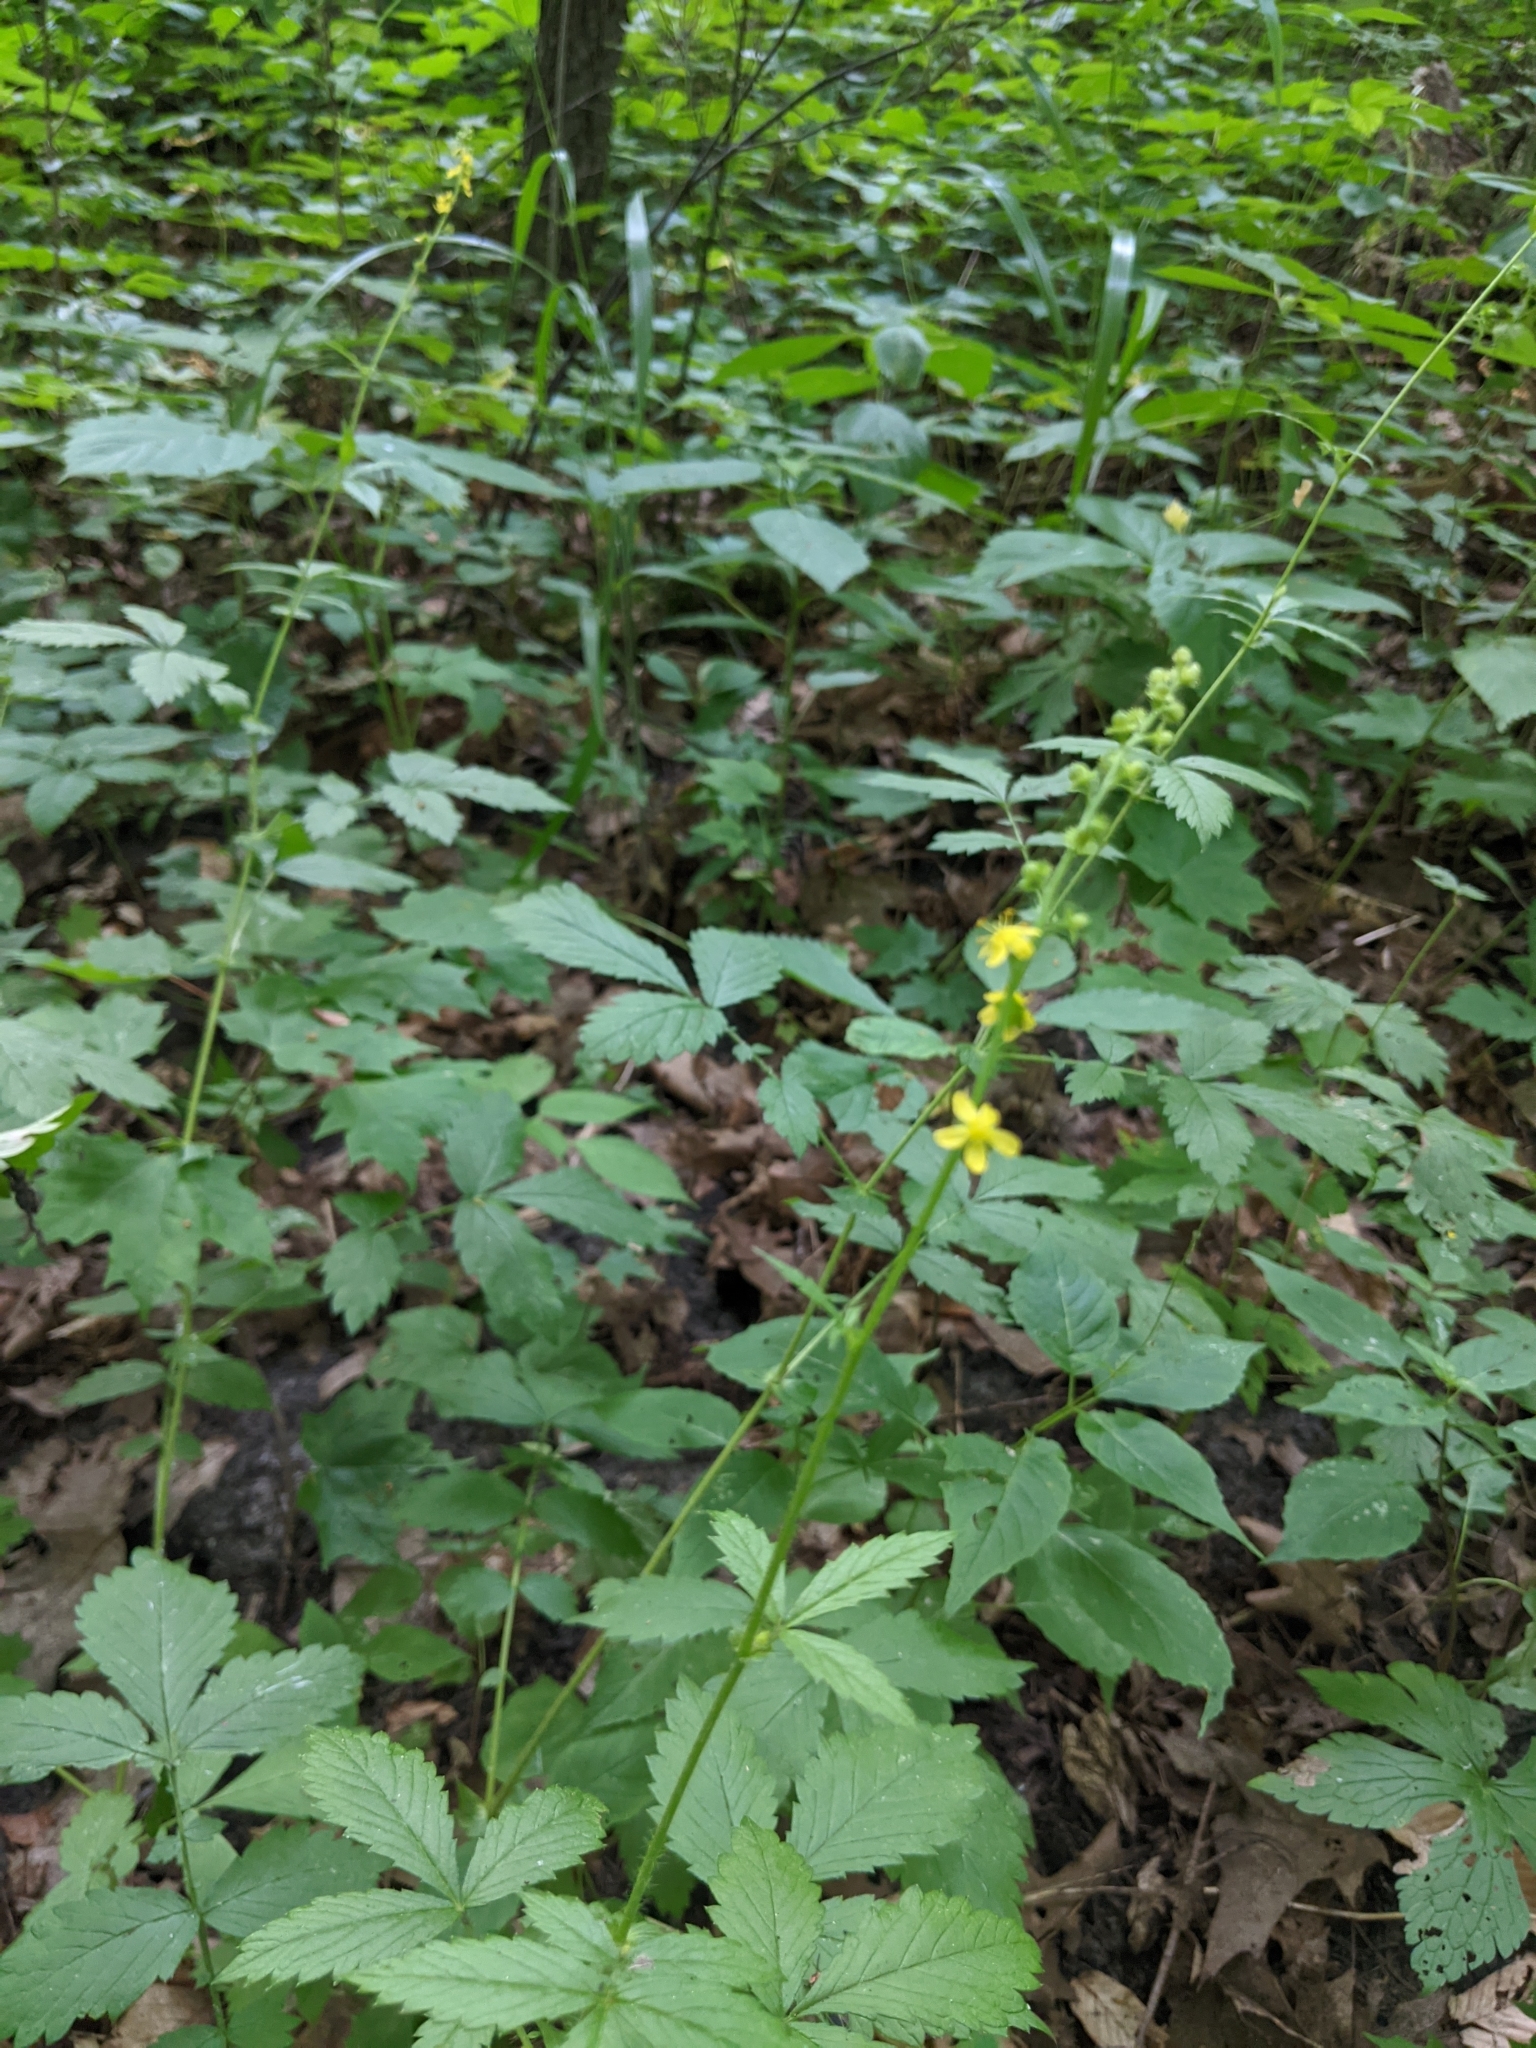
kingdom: Plantae
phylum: Tracheophyta
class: Magnoliopsida
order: Rosales
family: Rosaceae
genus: Agrimonia
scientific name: Agrimonia gryposepala
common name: Common agrimony
